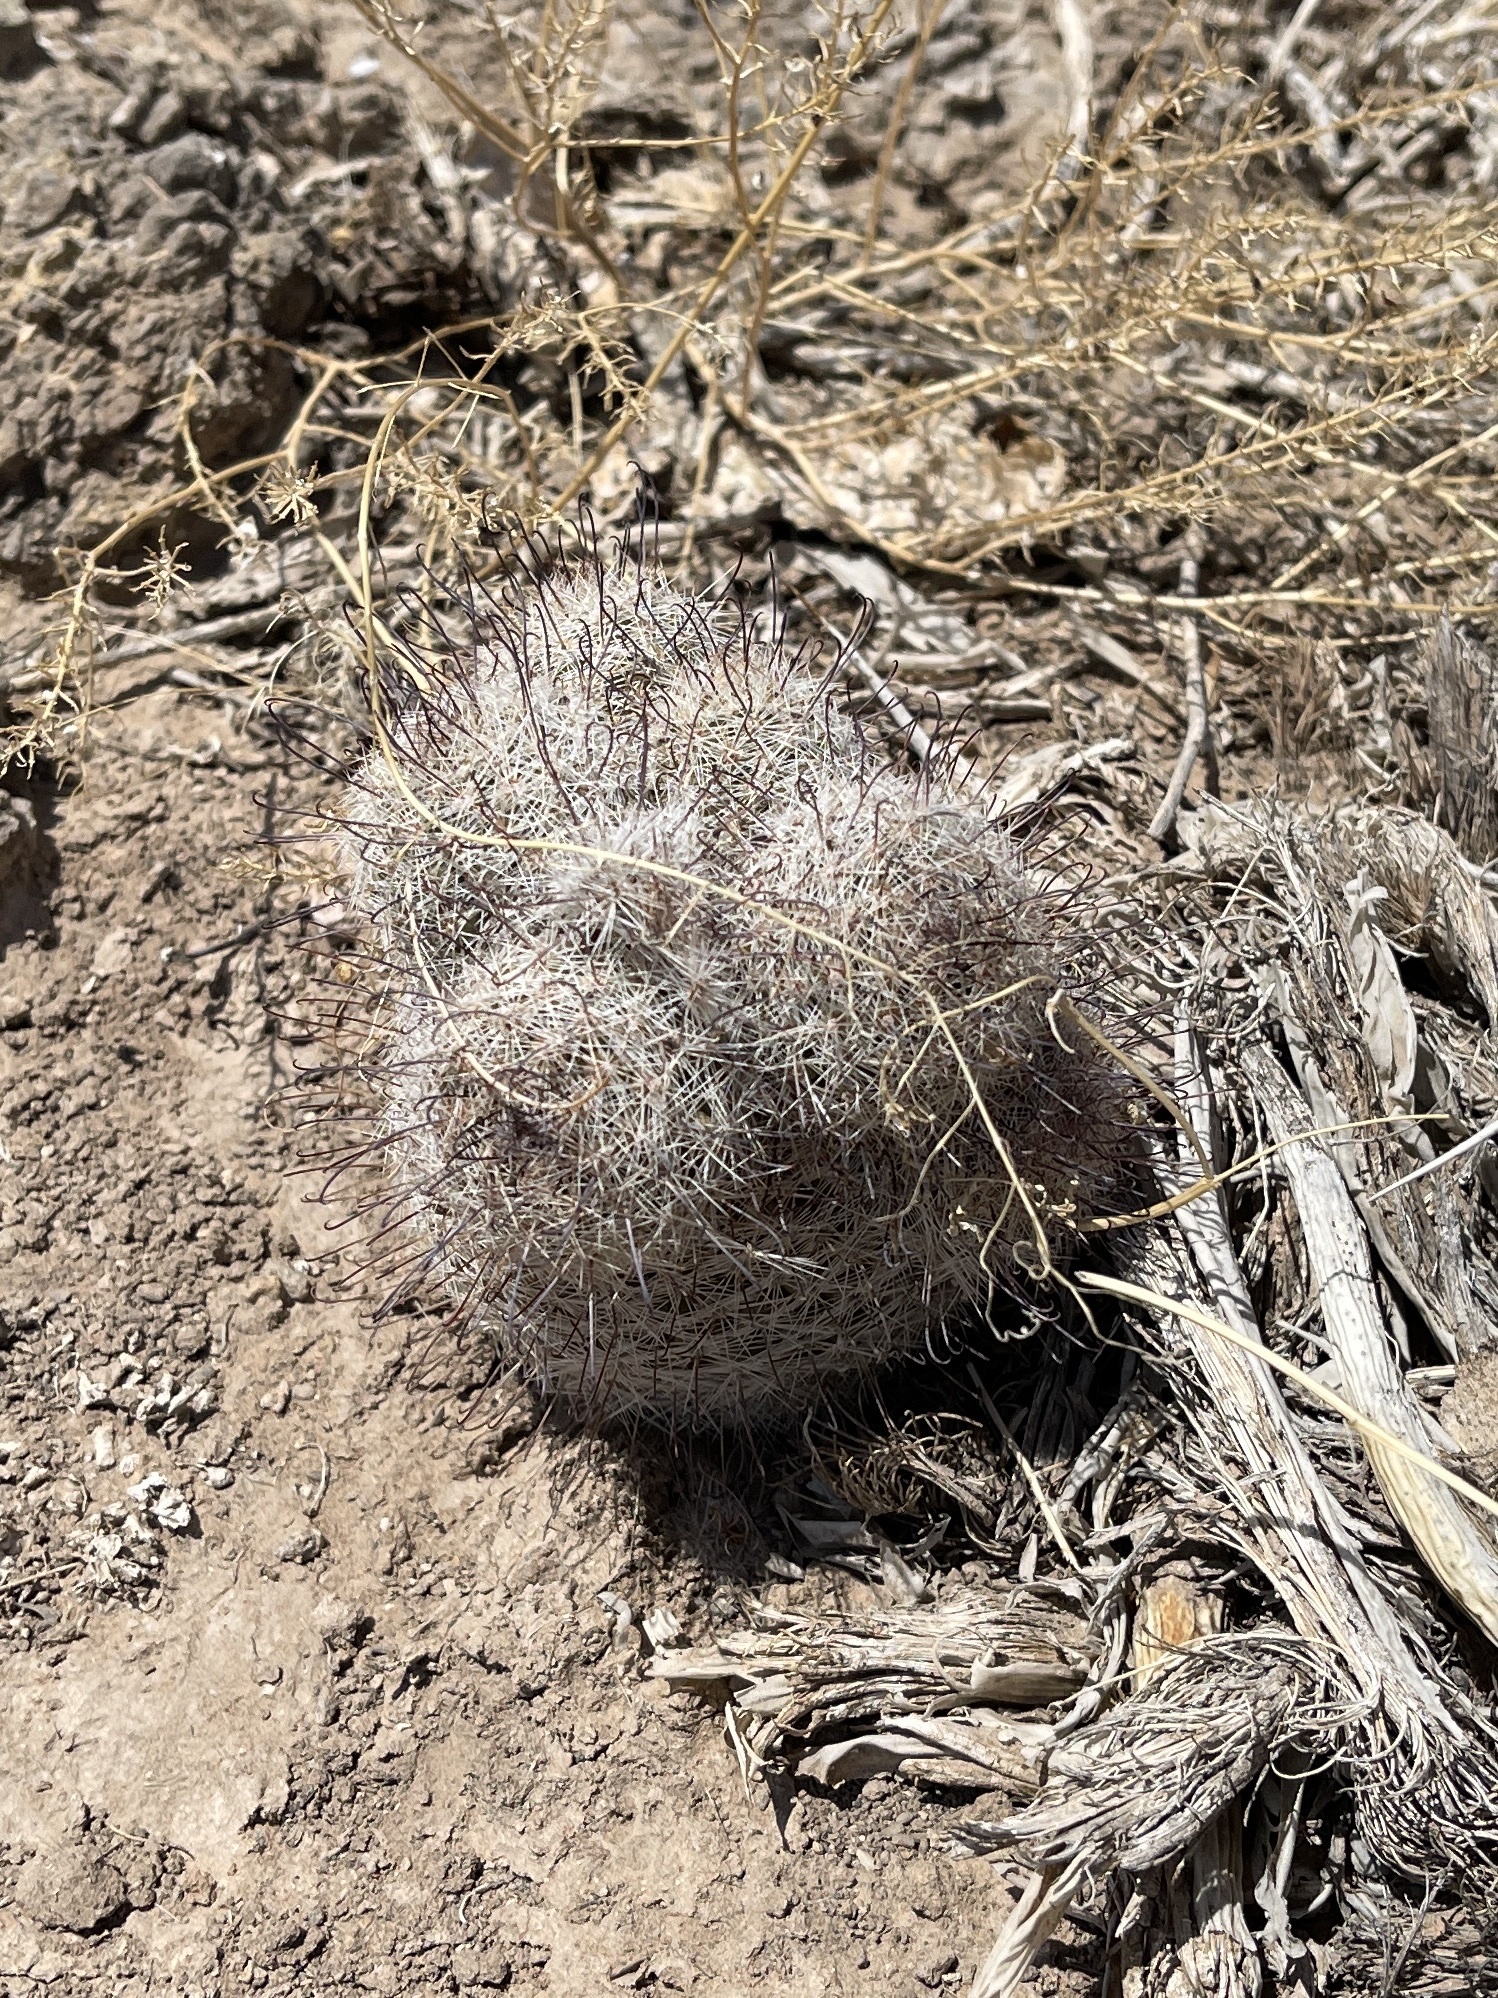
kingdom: Plantae
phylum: Tracheophyta
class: Magnoliopsida
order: Caryophyllales
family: Cactaceae
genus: Cochemiea
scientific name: Cochemiea grahamii
